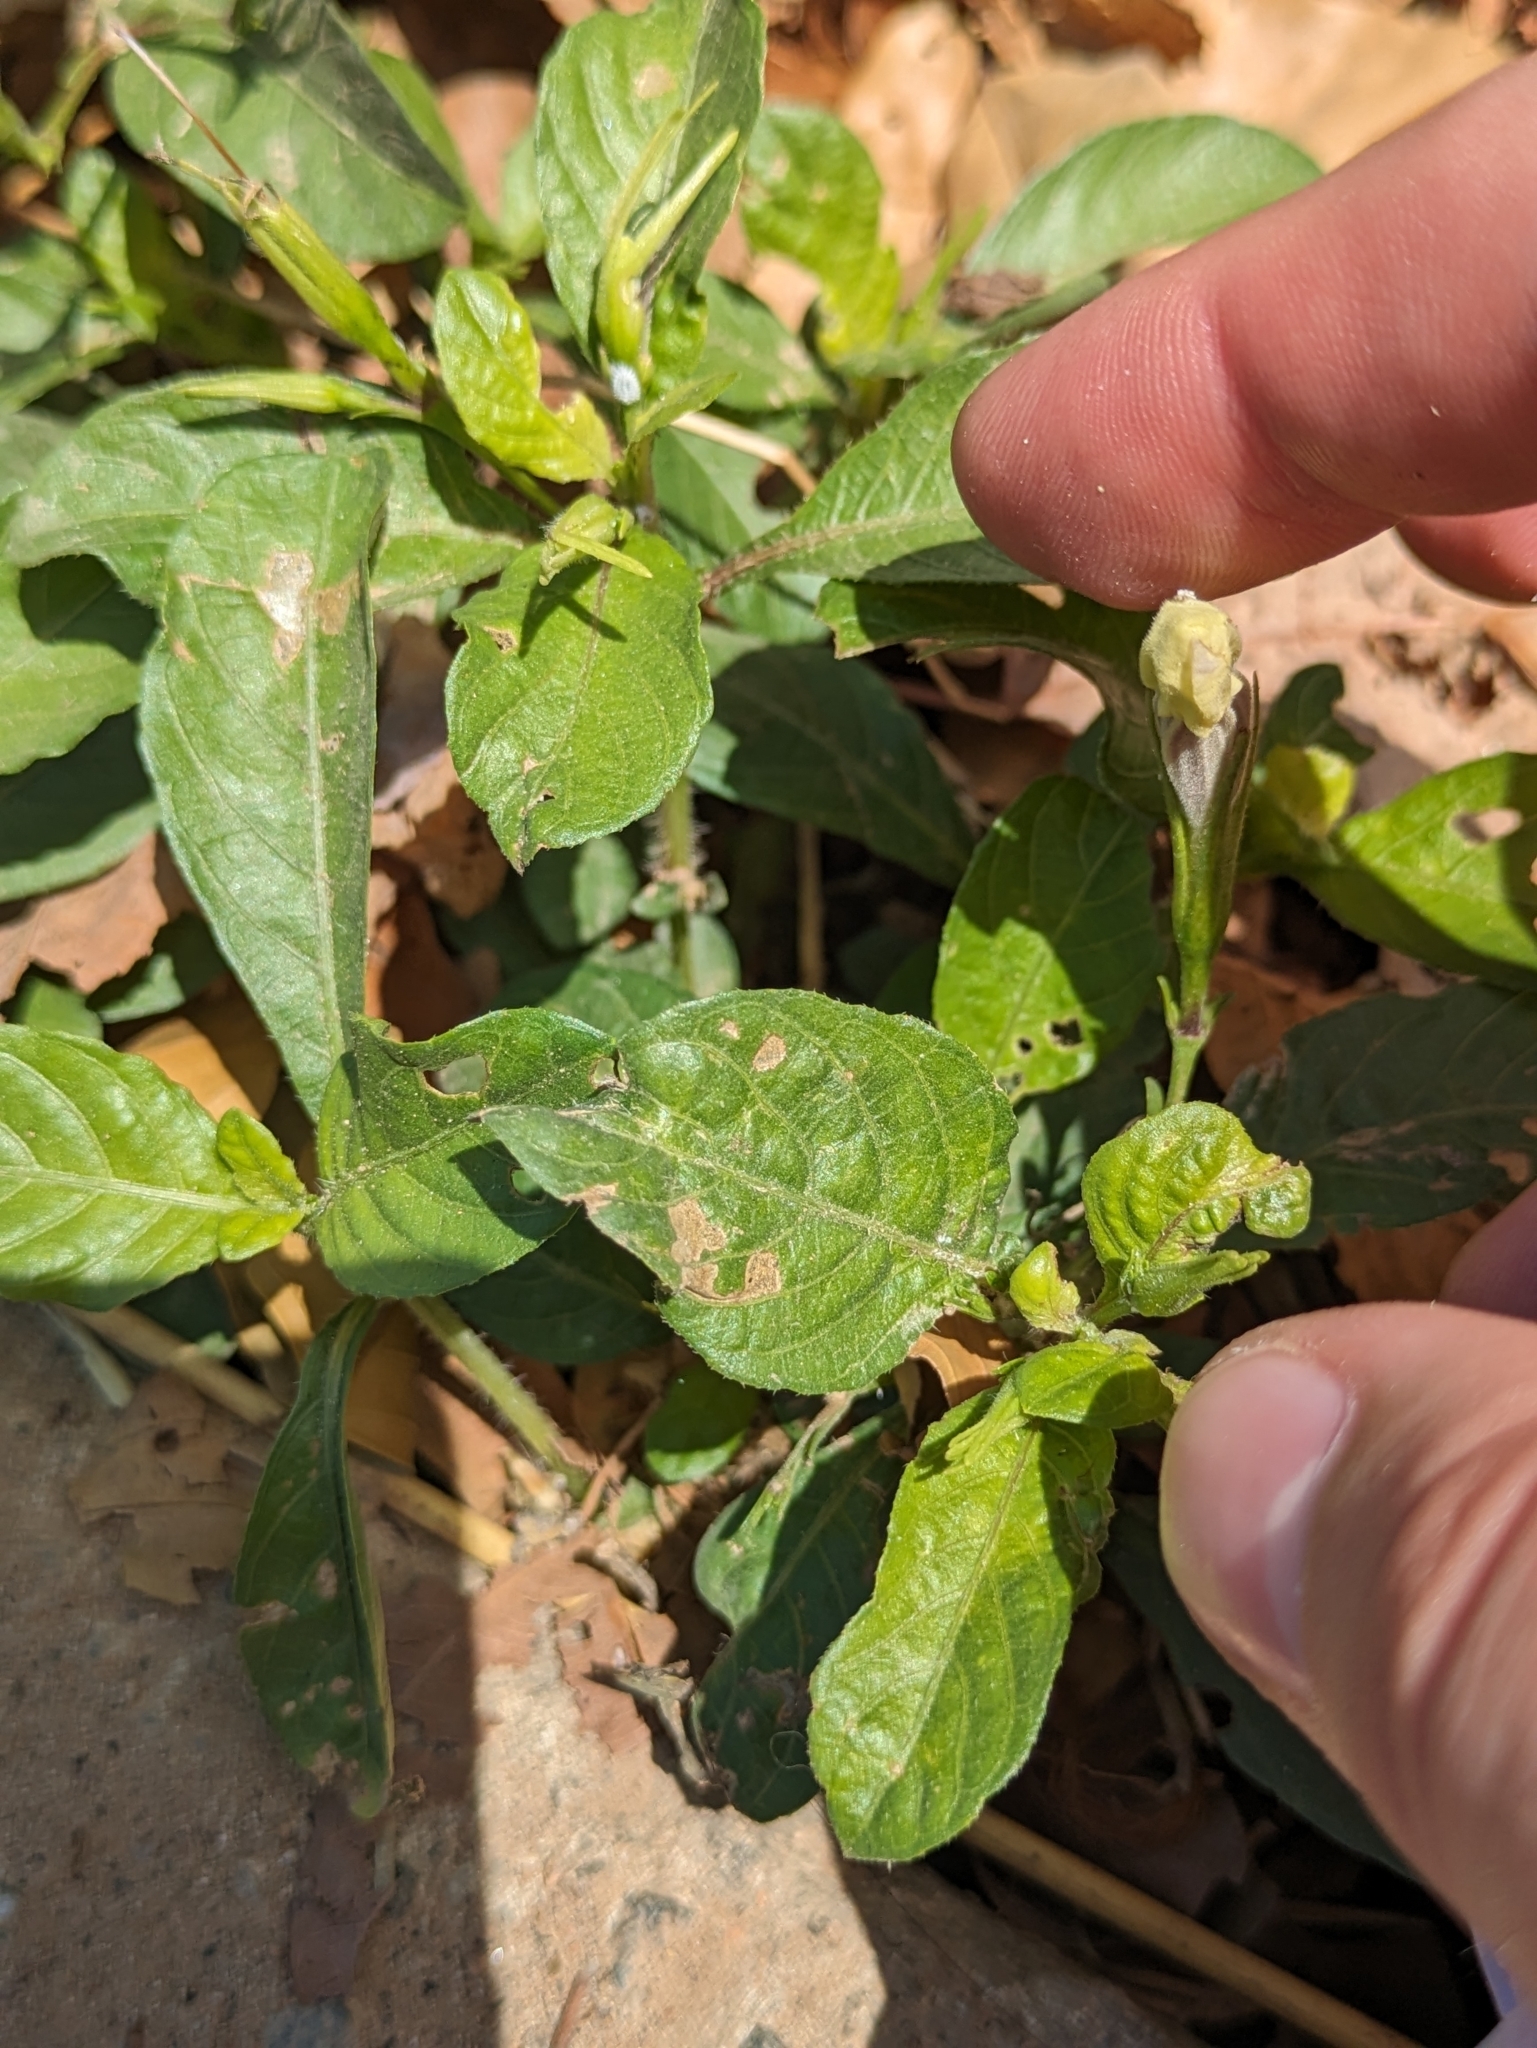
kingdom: Plantae
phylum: Tracheophyta
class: Magnoliopsida
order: Lamiales
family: Acanthaceae
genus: Ruellia
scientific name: Ruellia tuberosa
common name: Devil's bit
